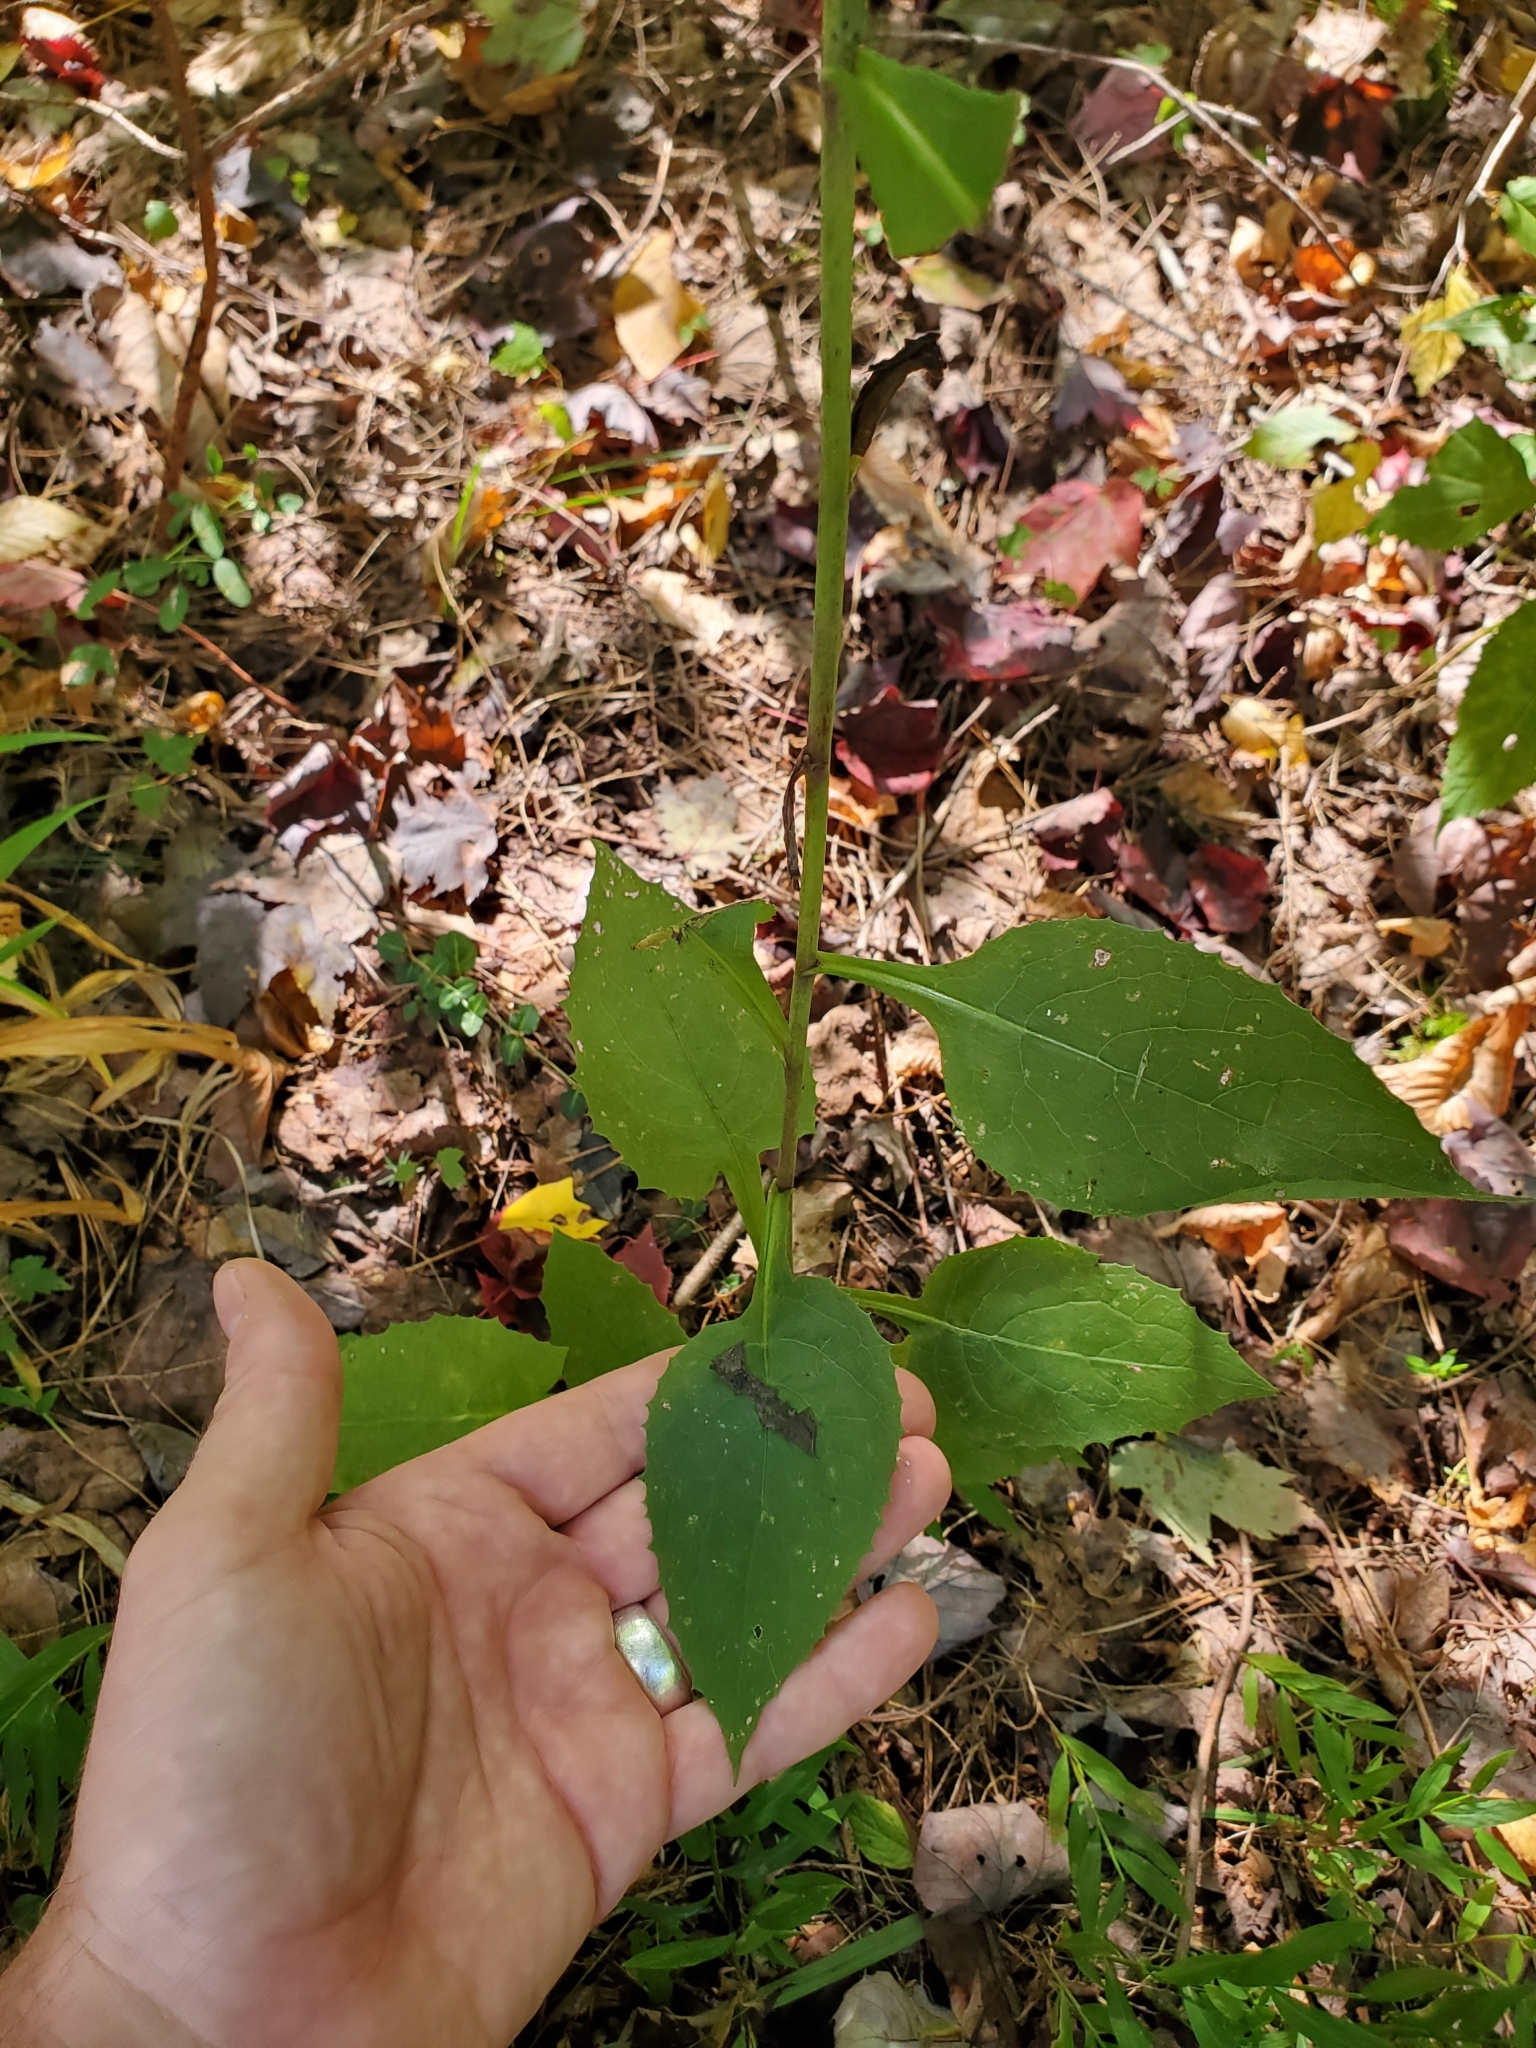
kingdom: Plantae
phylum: Tracheophyta
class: Magnoliopsida
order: Asterales
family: Asteraceae
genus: Lactuca
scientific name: Lactuca floridana
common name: Woodland lettuce
